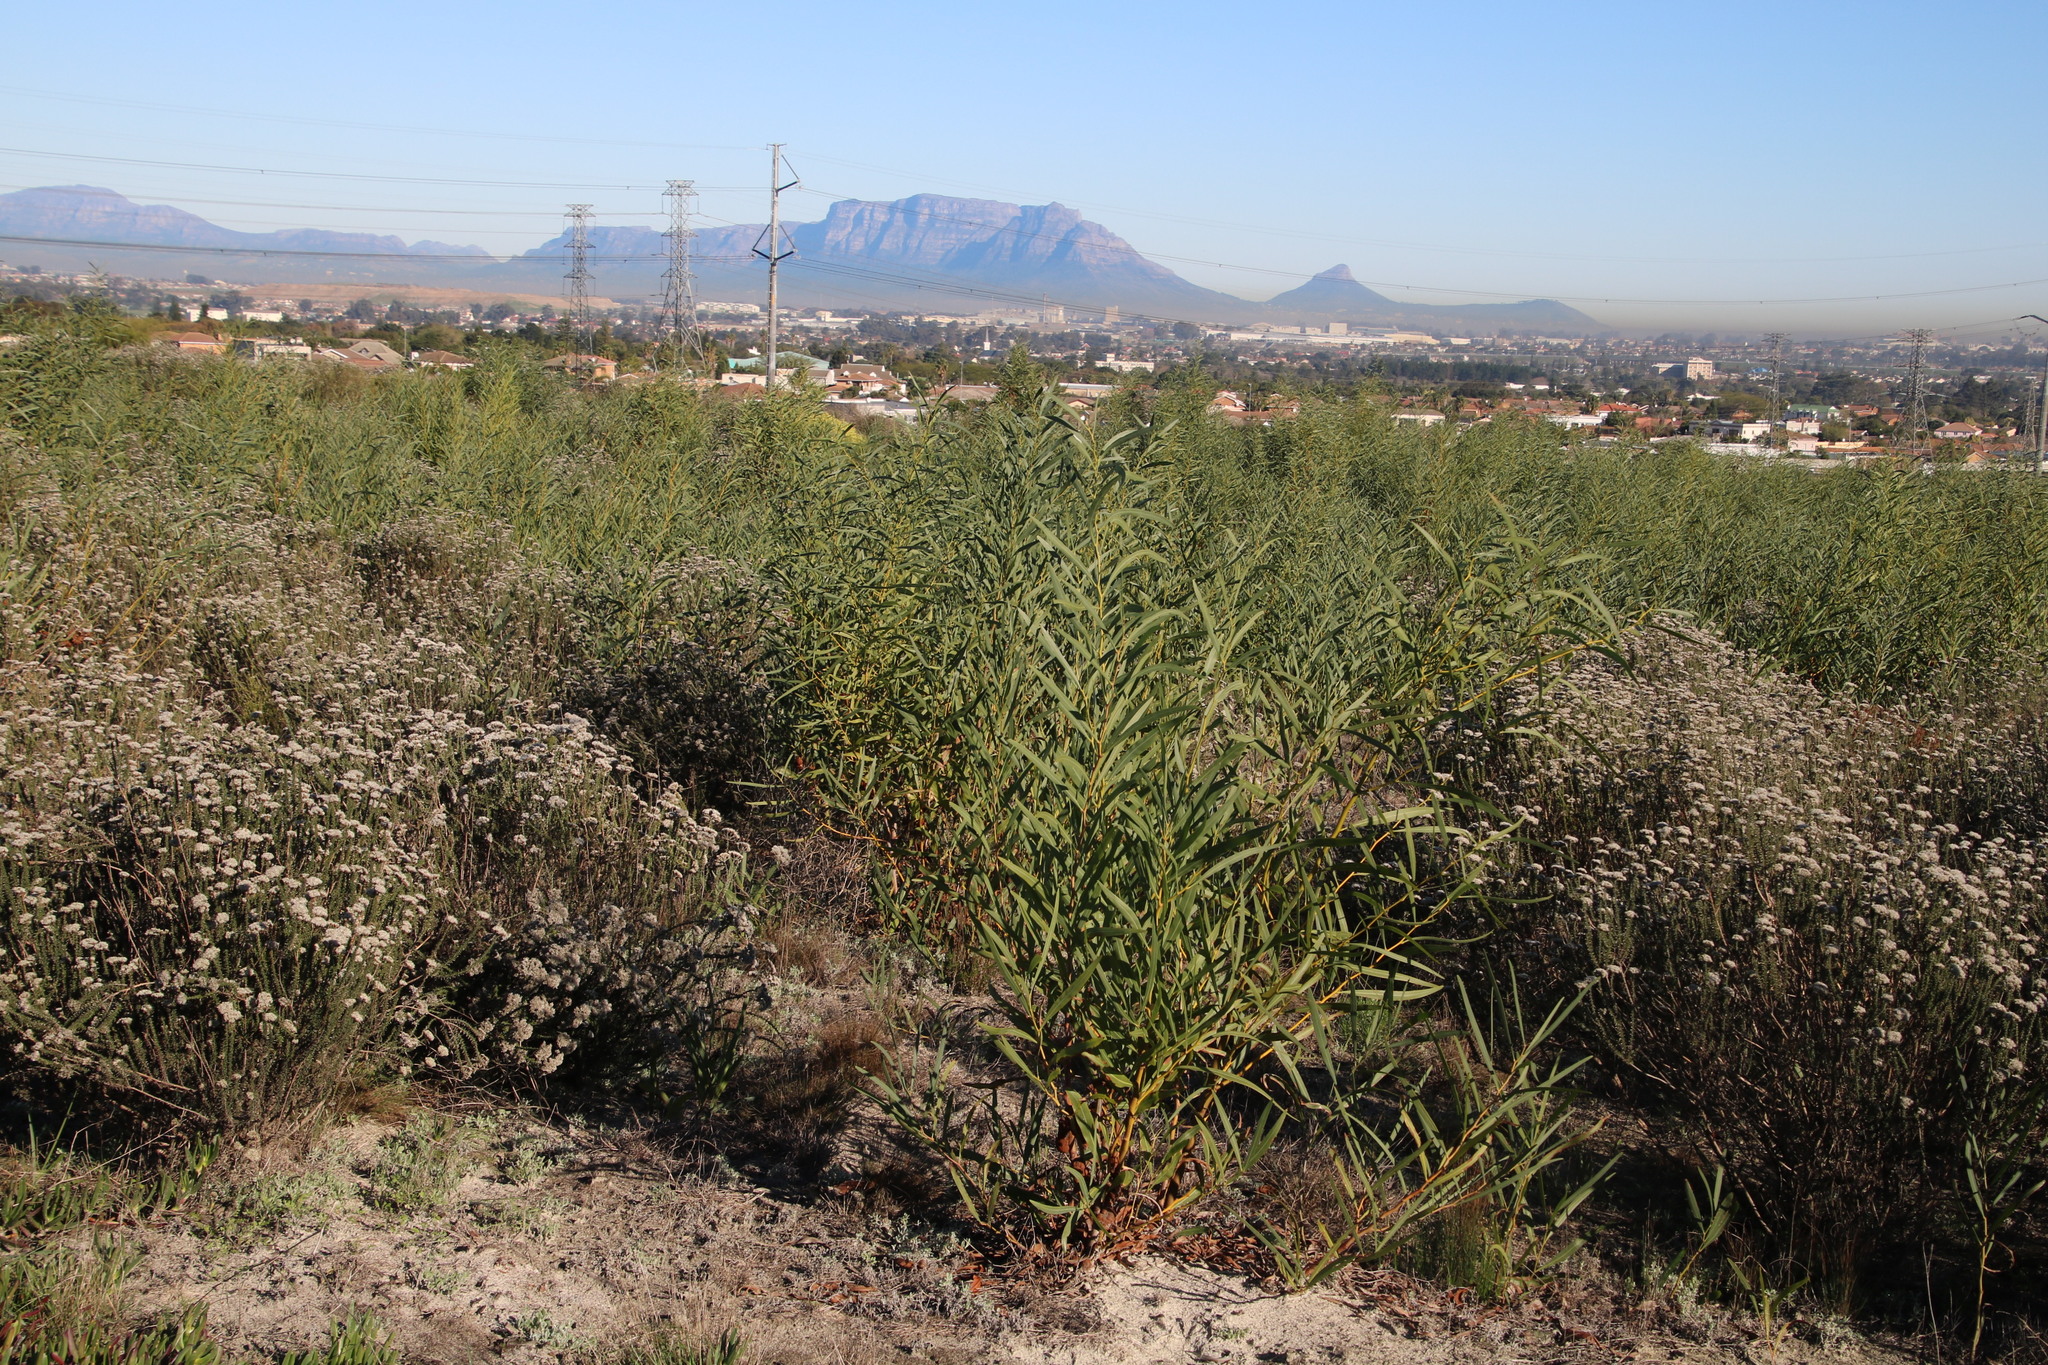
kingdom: Plantae
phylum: Tracheophyta
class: Magnoliopsida
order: Fabales
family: Fabaceae
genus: Acacia
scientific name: Acacia saligna
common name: Orange wattle
